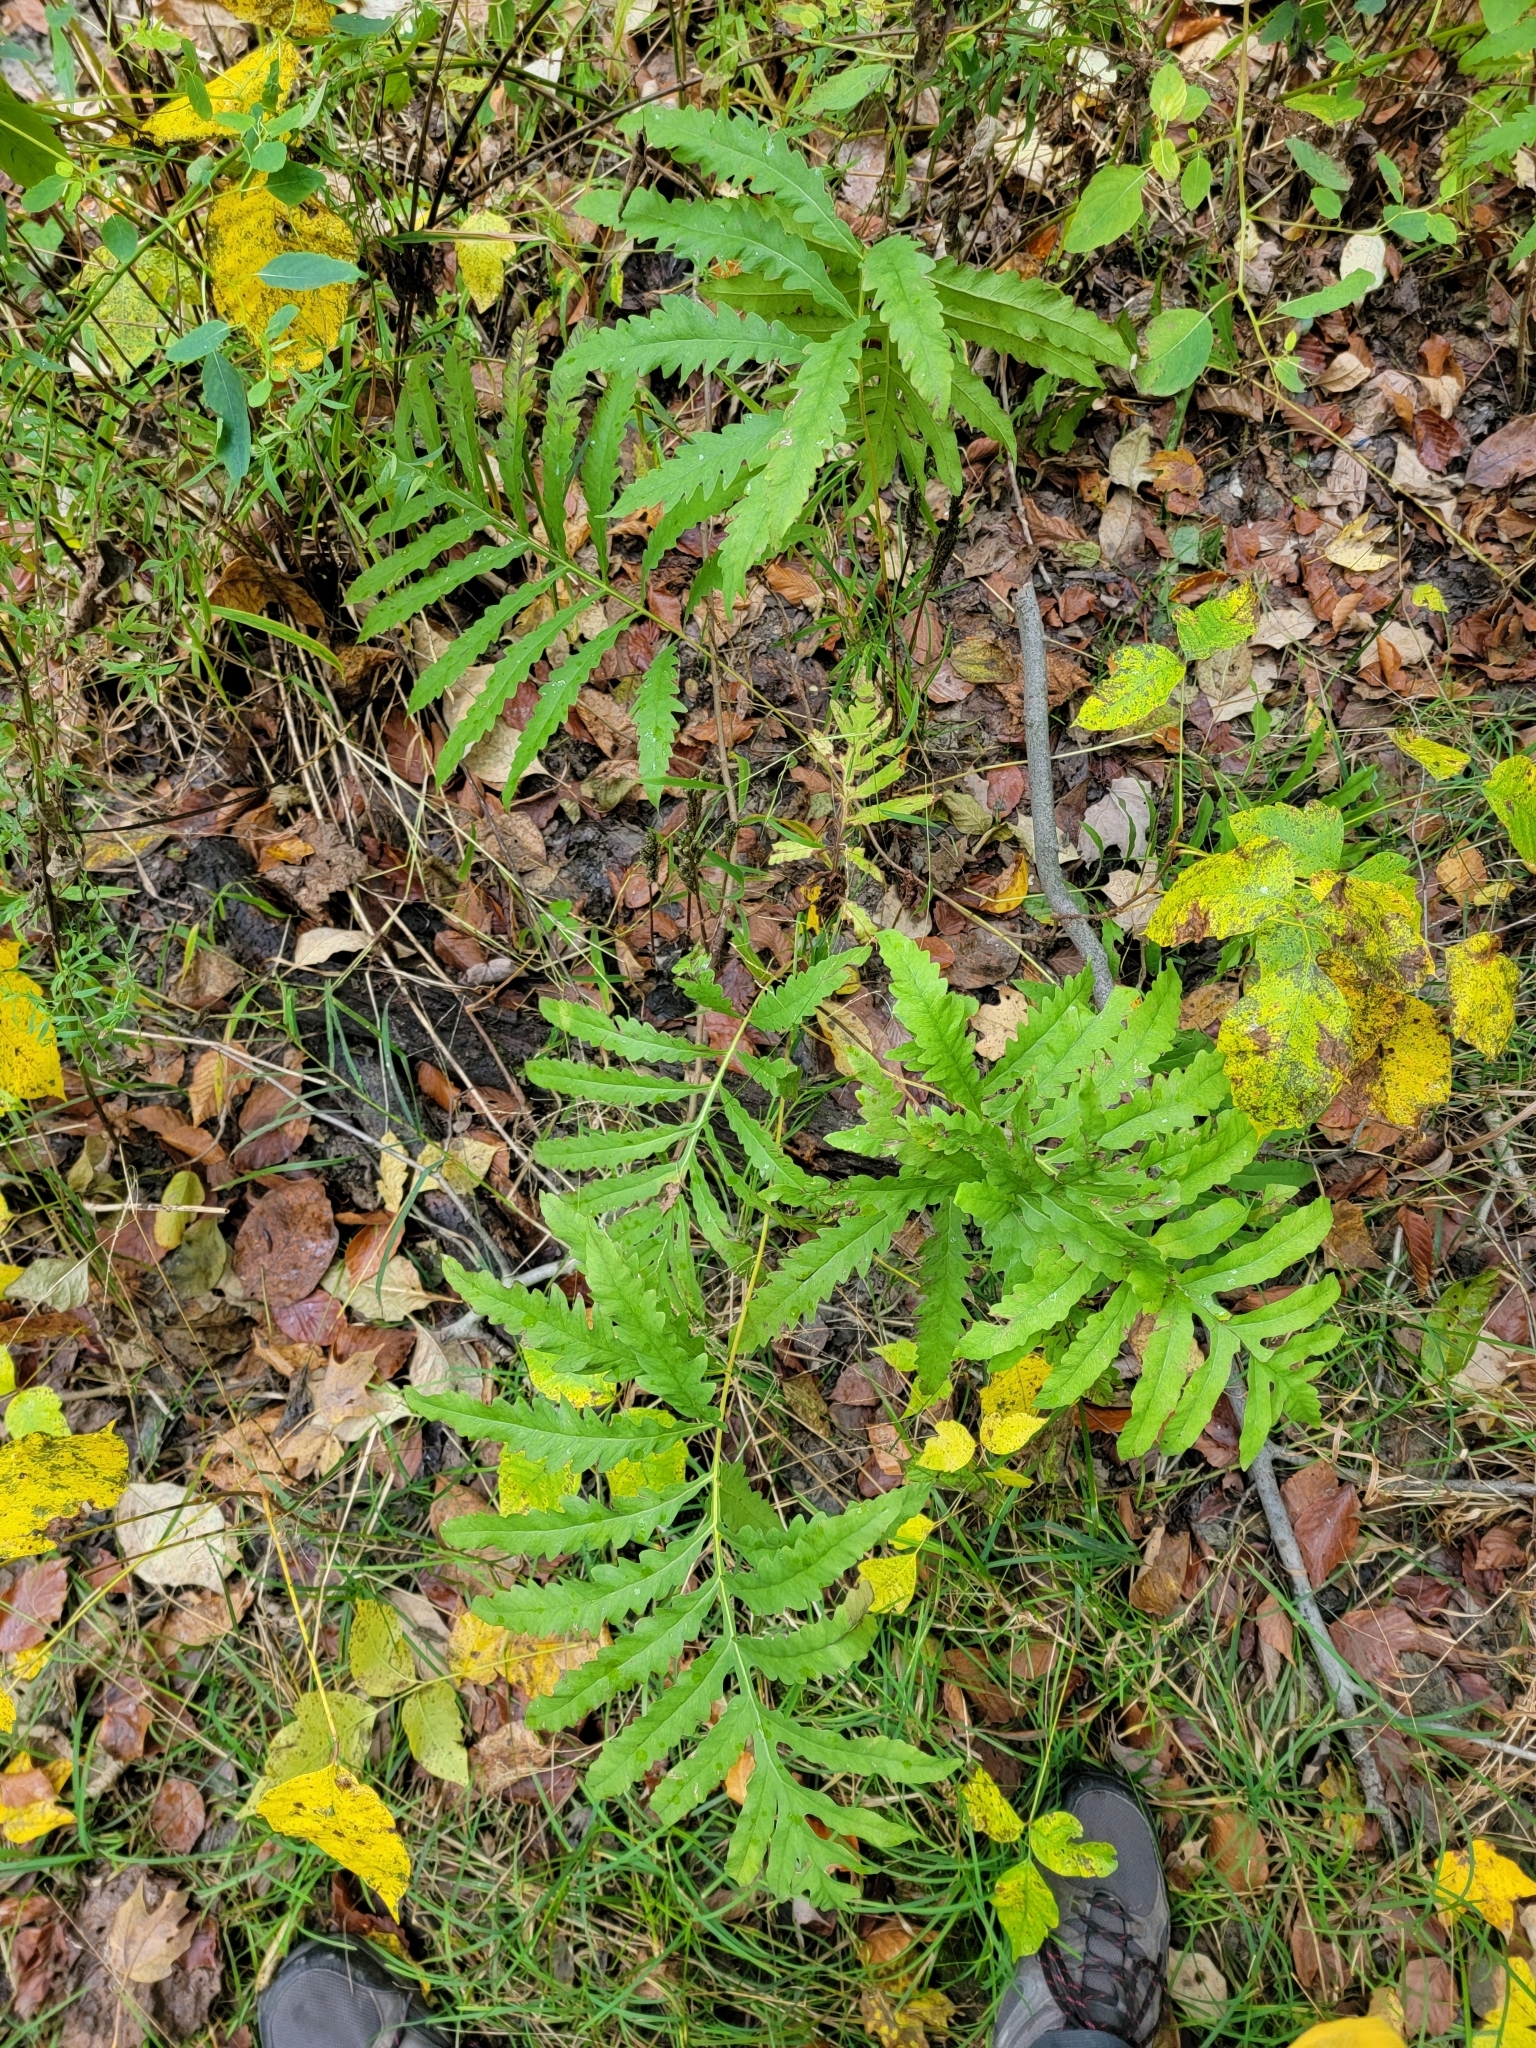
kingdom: Plantae
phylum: Tracheophyta
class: Polypodiopsida
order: Polypodiales
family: Onocleaceae
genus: Onoclea
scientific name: Onoclea sensibilis
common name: Sensitive fern
